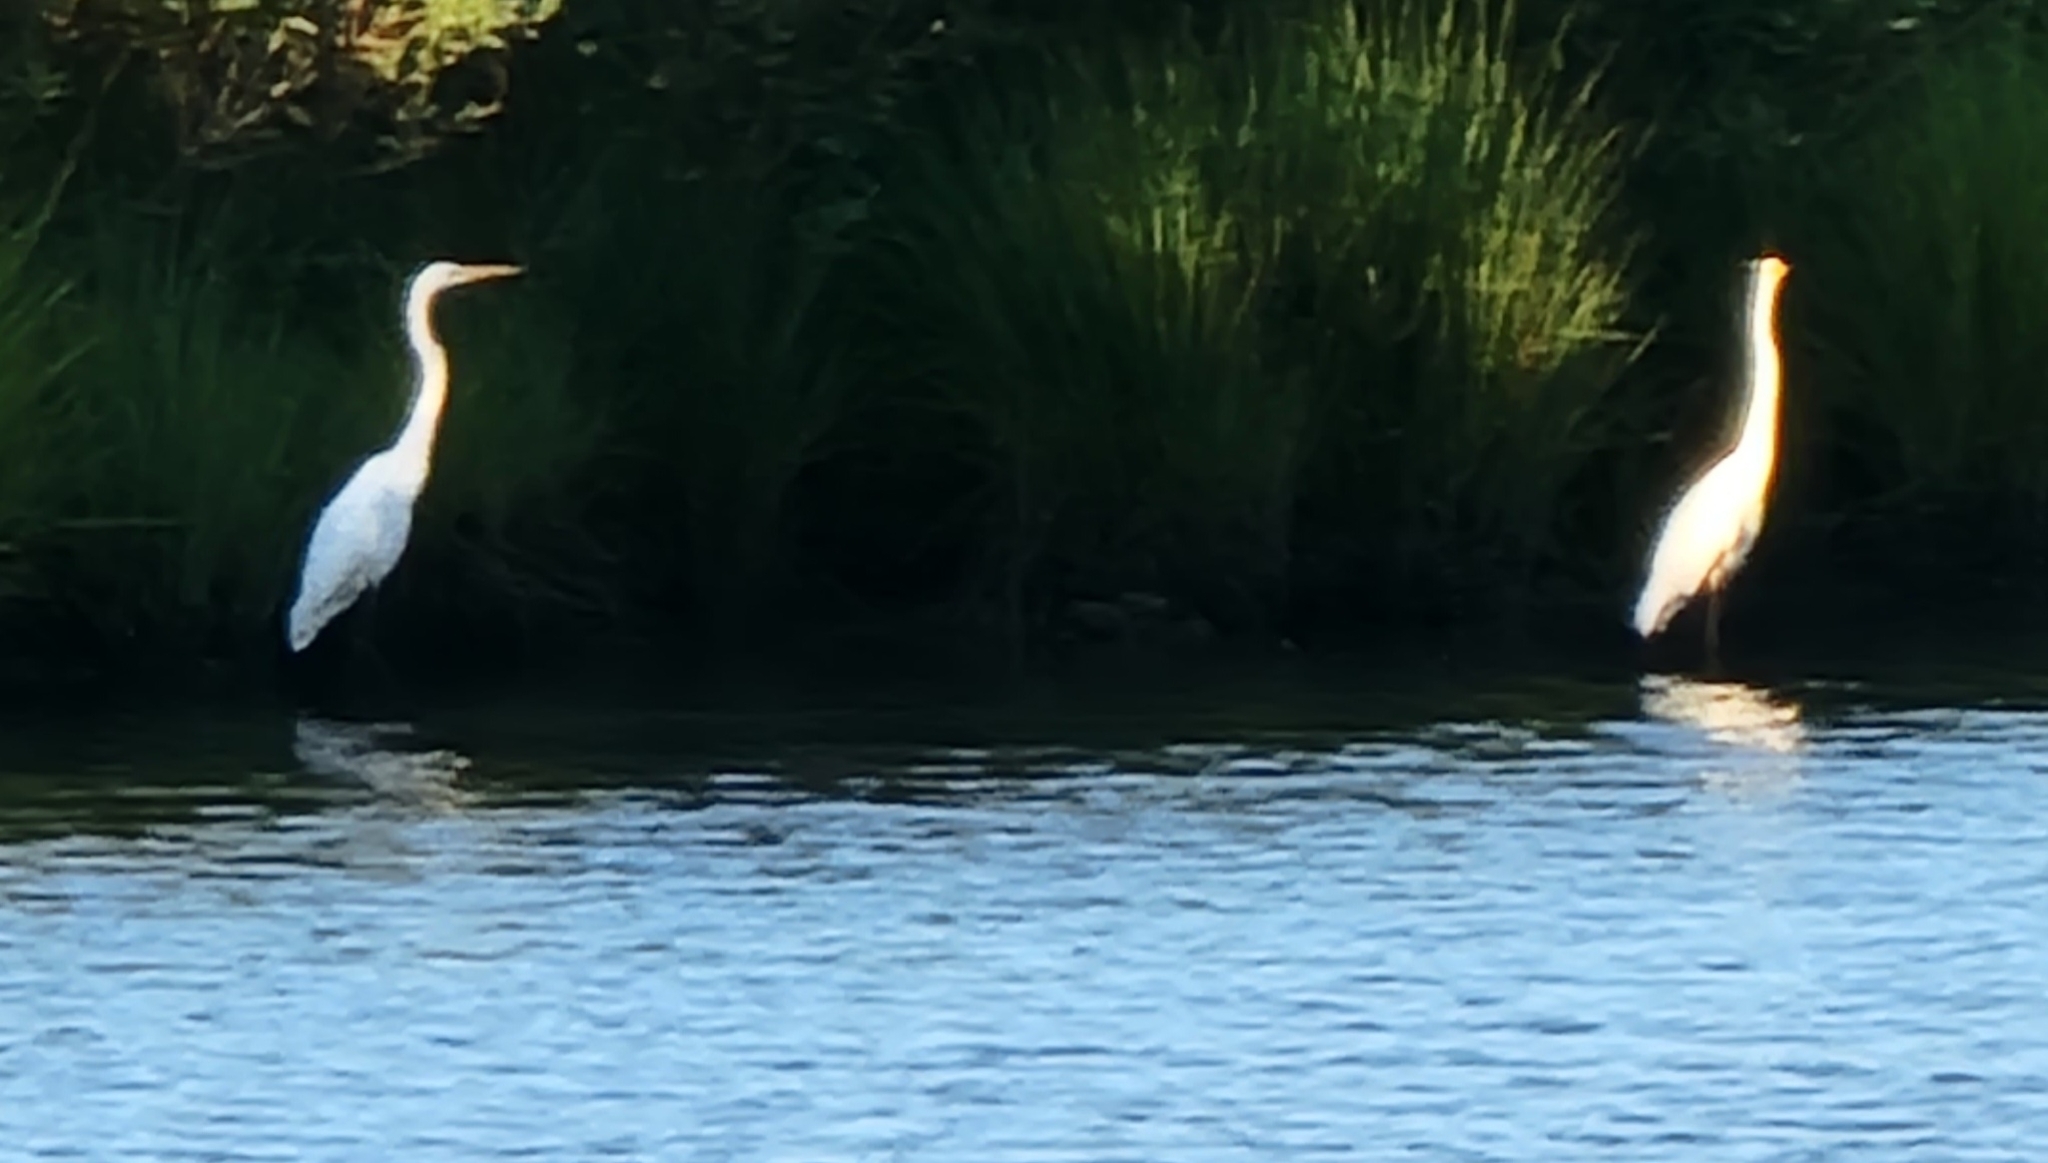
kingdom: Animalia
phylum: Chordata
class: Aves
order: Pelecaniformes
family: Ardeidae
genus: Ardea
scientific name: Ardea alba
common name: Great egret
